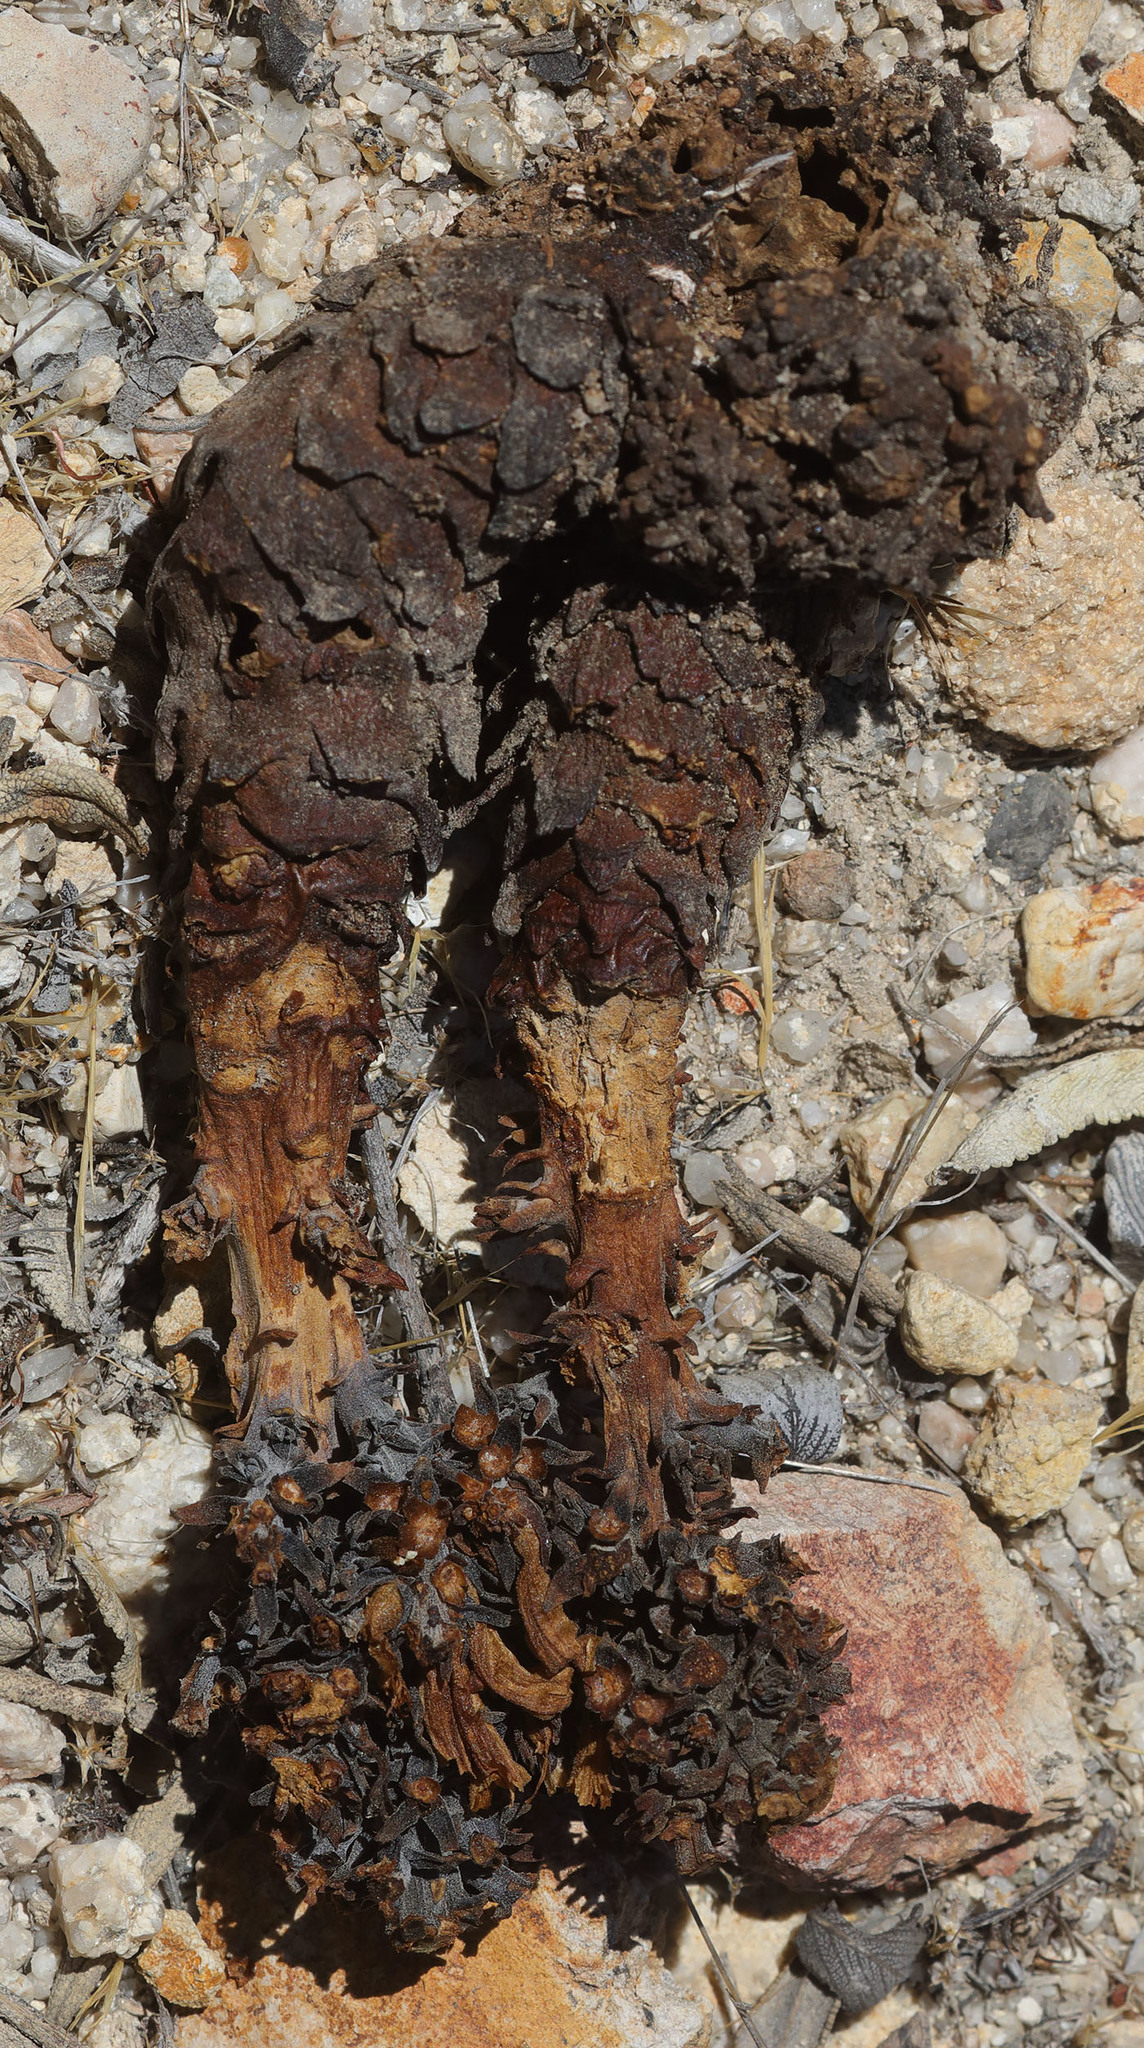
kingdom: Plantae
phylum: Tracheophyta
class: Magnoliopsida
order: Lamiales
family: Orobanchaceae
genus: Aphyllon
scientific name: Aphyllon tuberosum
